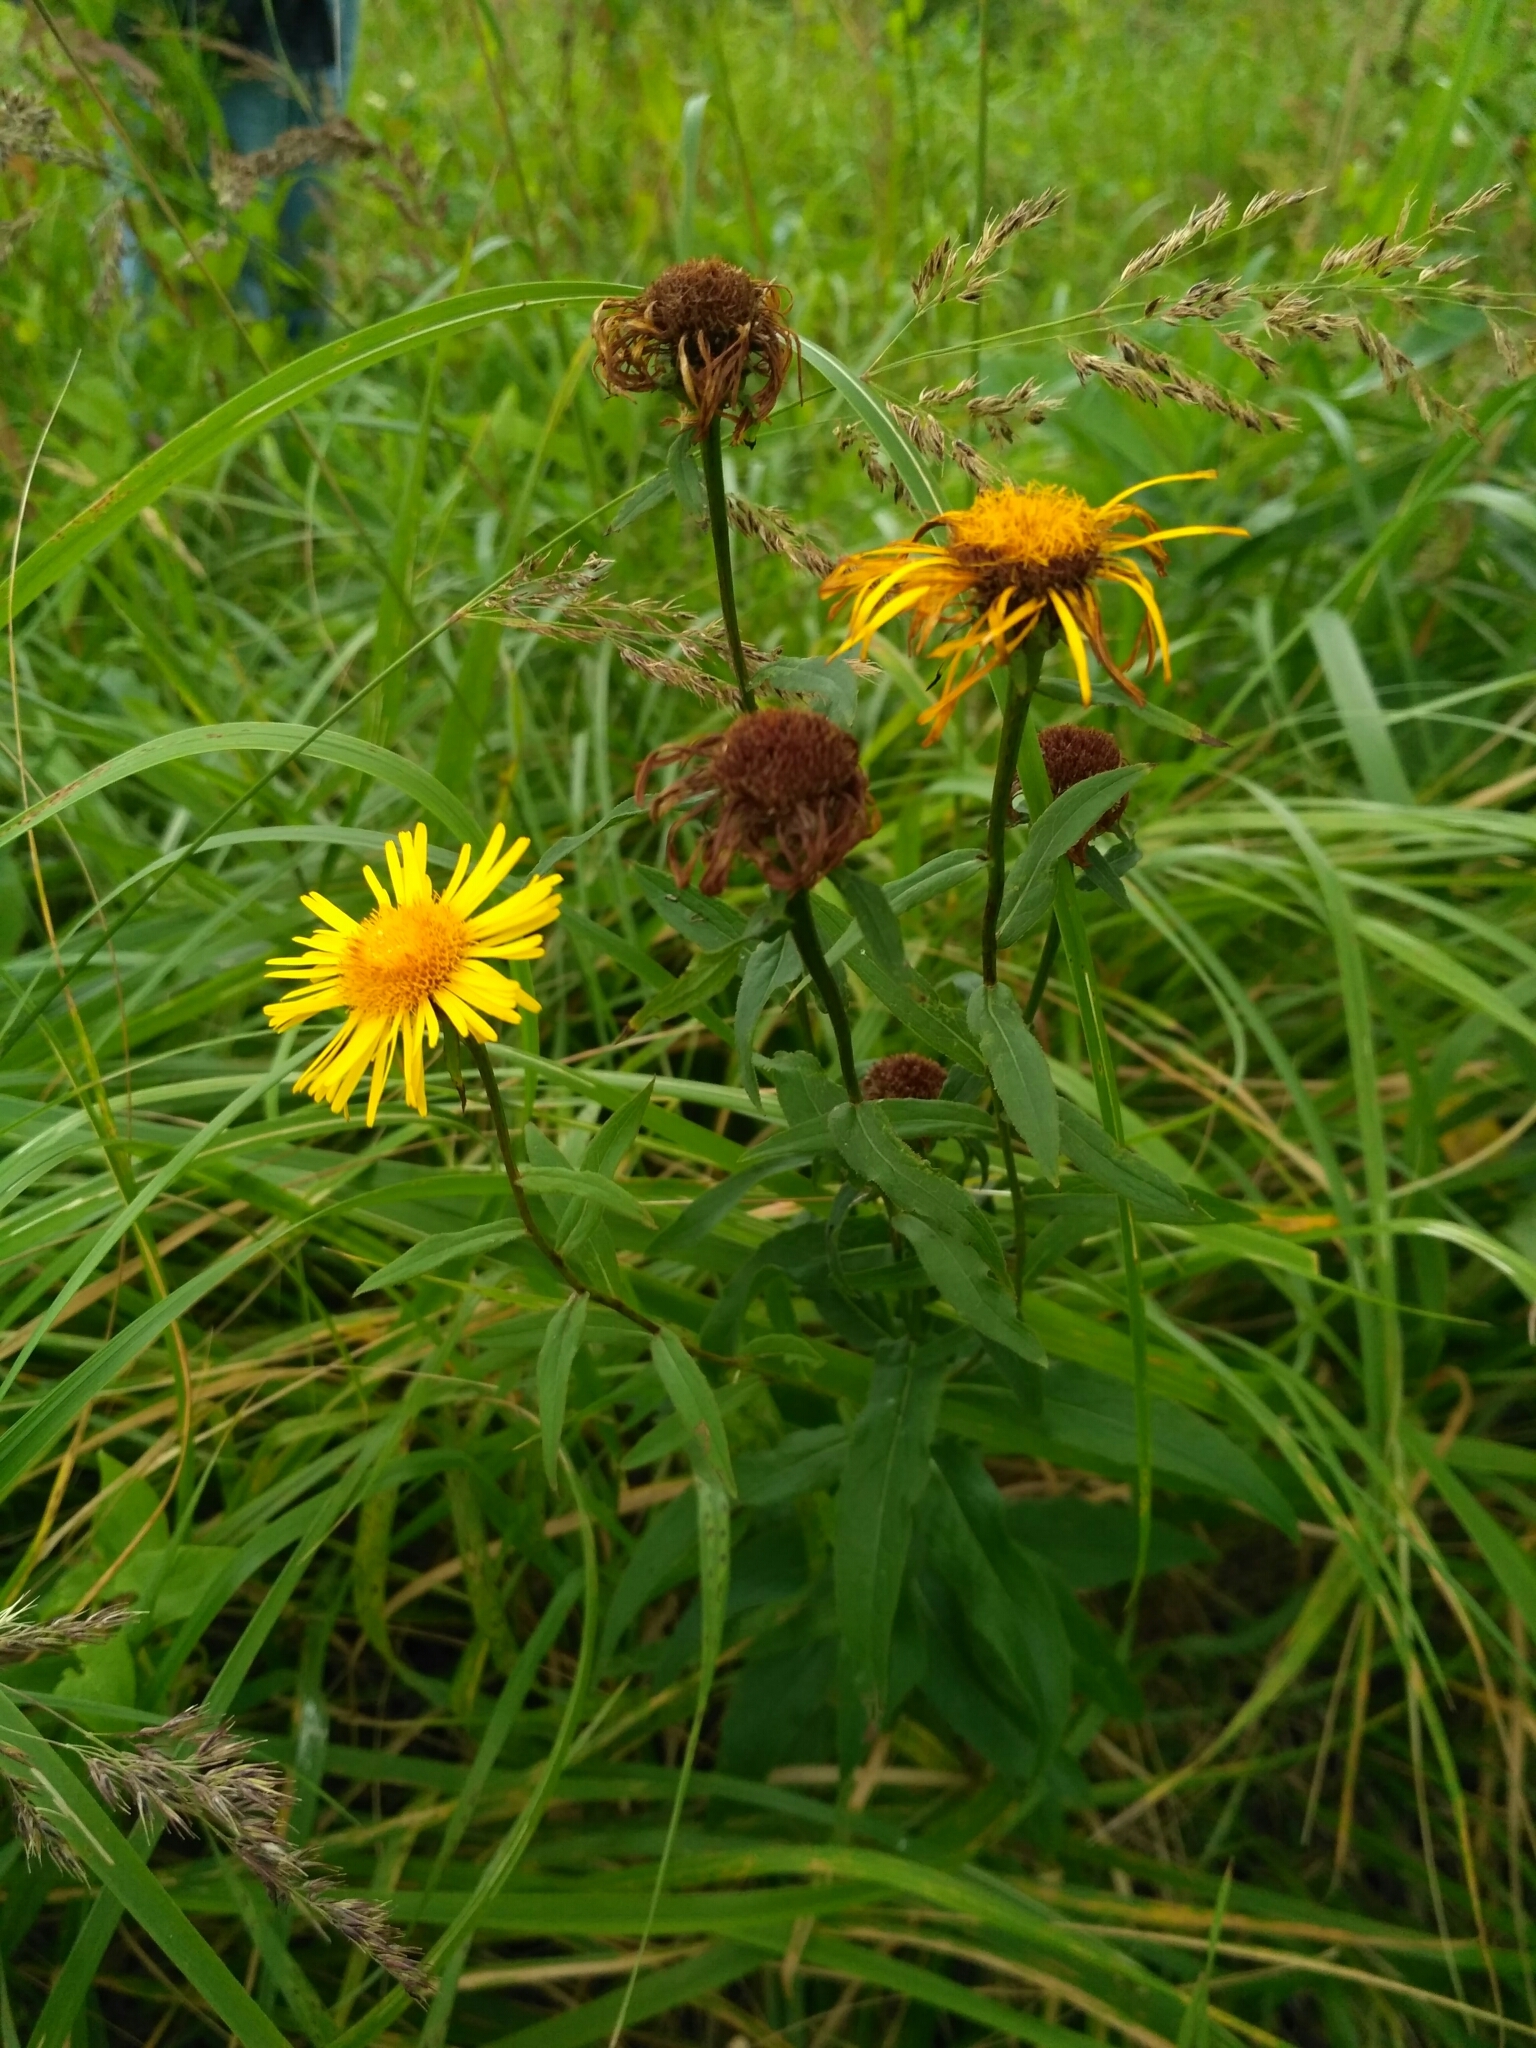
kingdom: Plantae
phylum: Tracheophyta
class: Magnoliopsida
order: Asterales
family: Asteraceae
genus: Pentanema
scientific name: Pentanema salicinum
